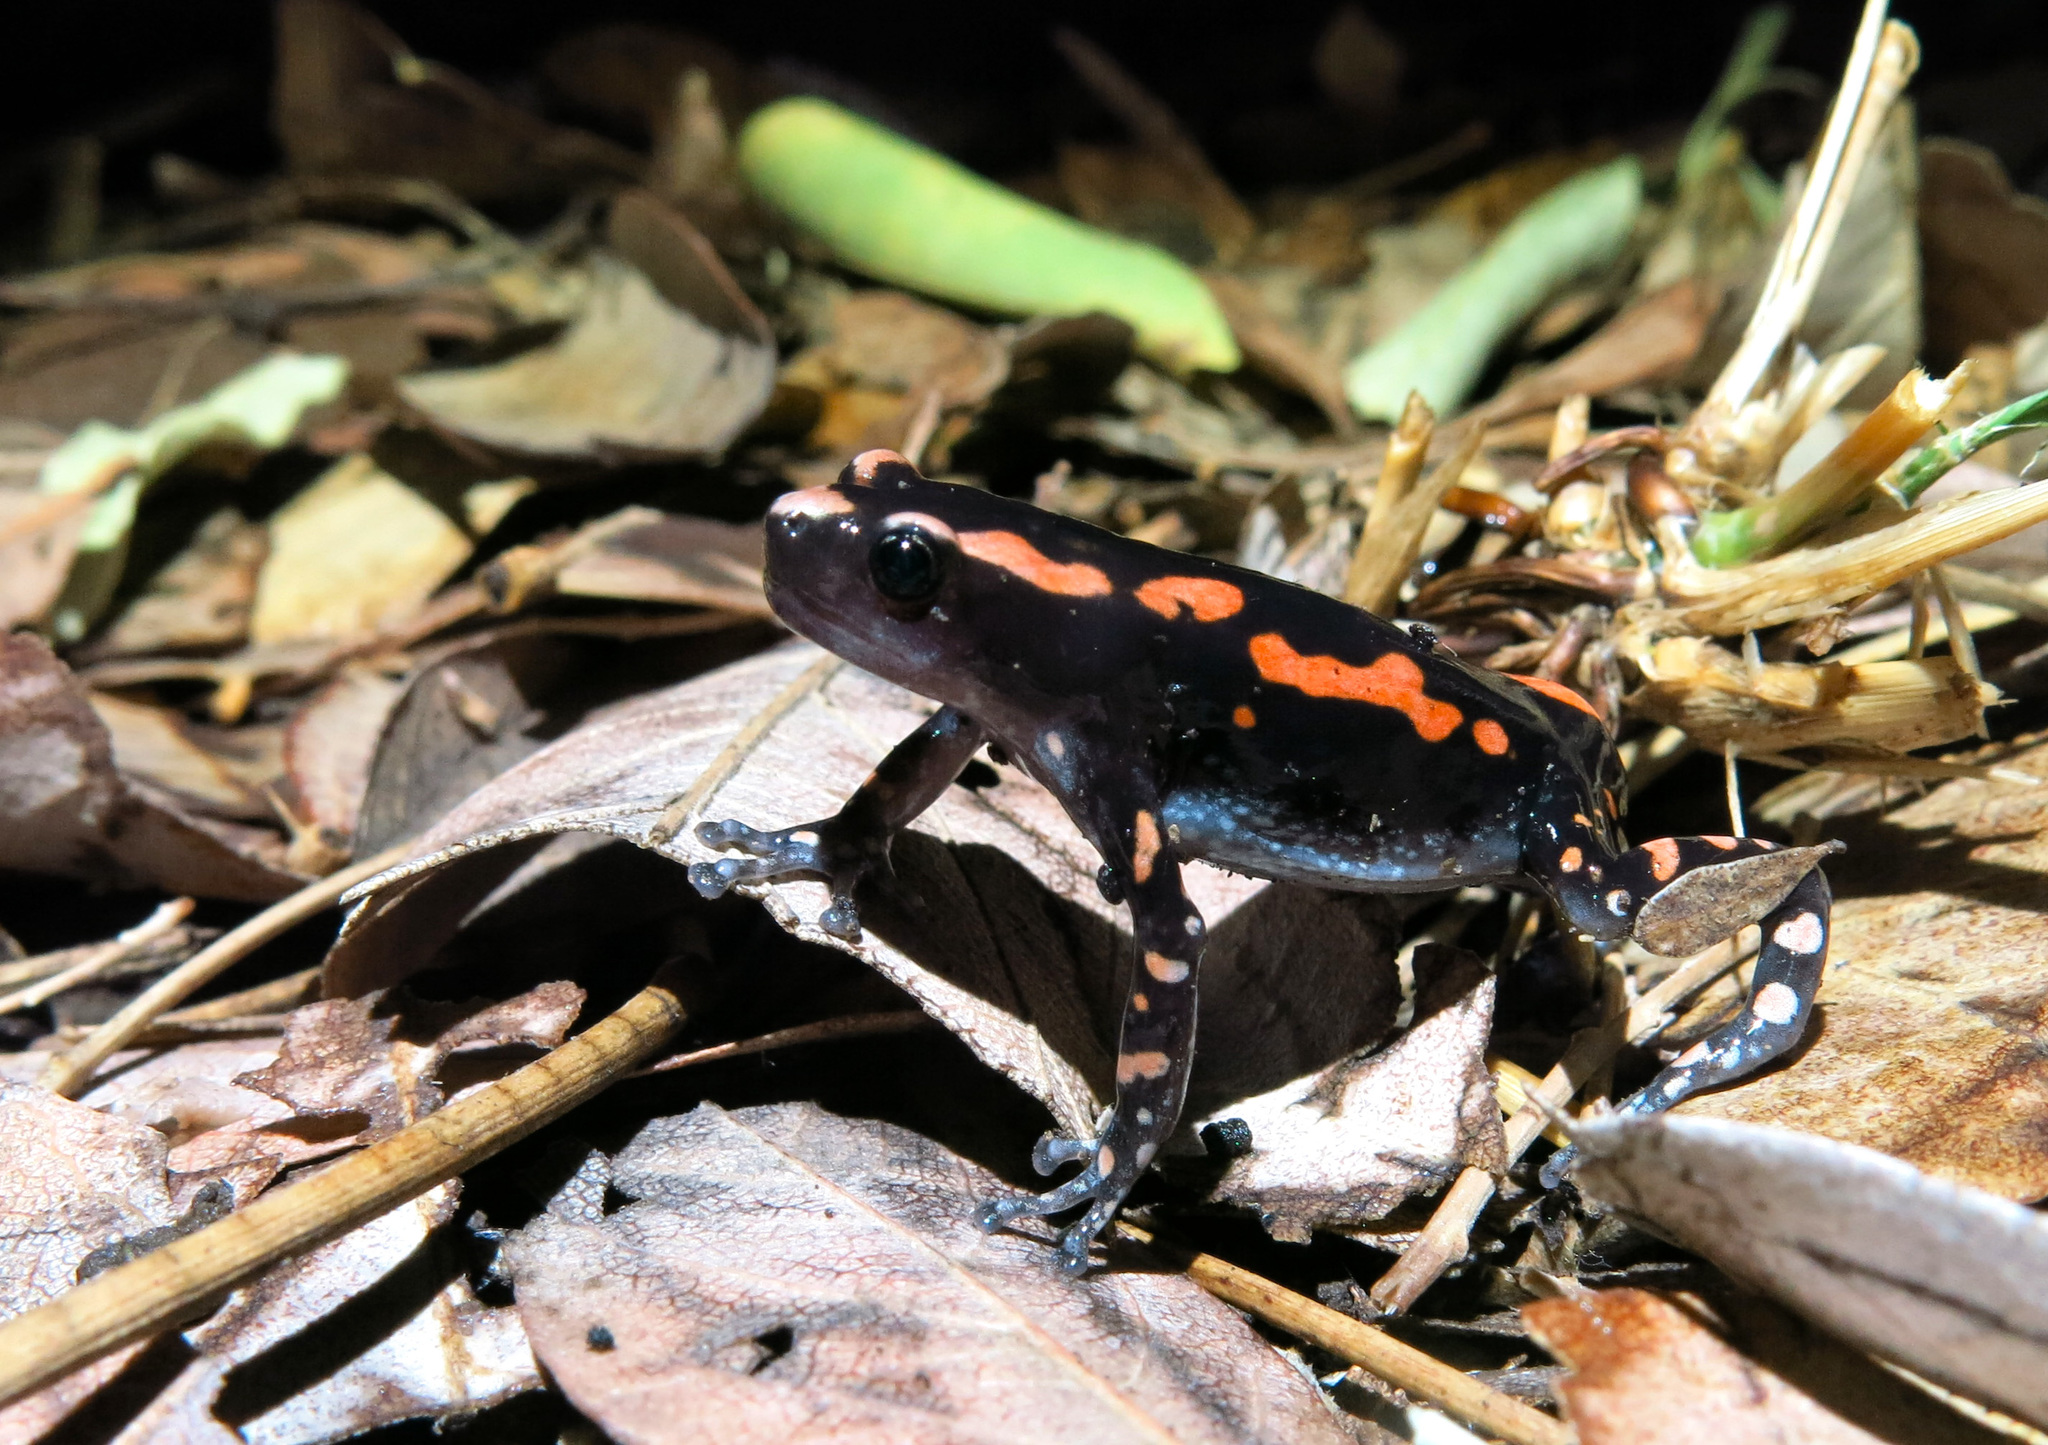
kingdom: Animalia
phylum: Chordata
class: Amphibia
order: Anura
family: Microhylidae
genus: Phrynomantis
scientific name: Phrynomantis bifasciatus
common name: Banded rubber frog
